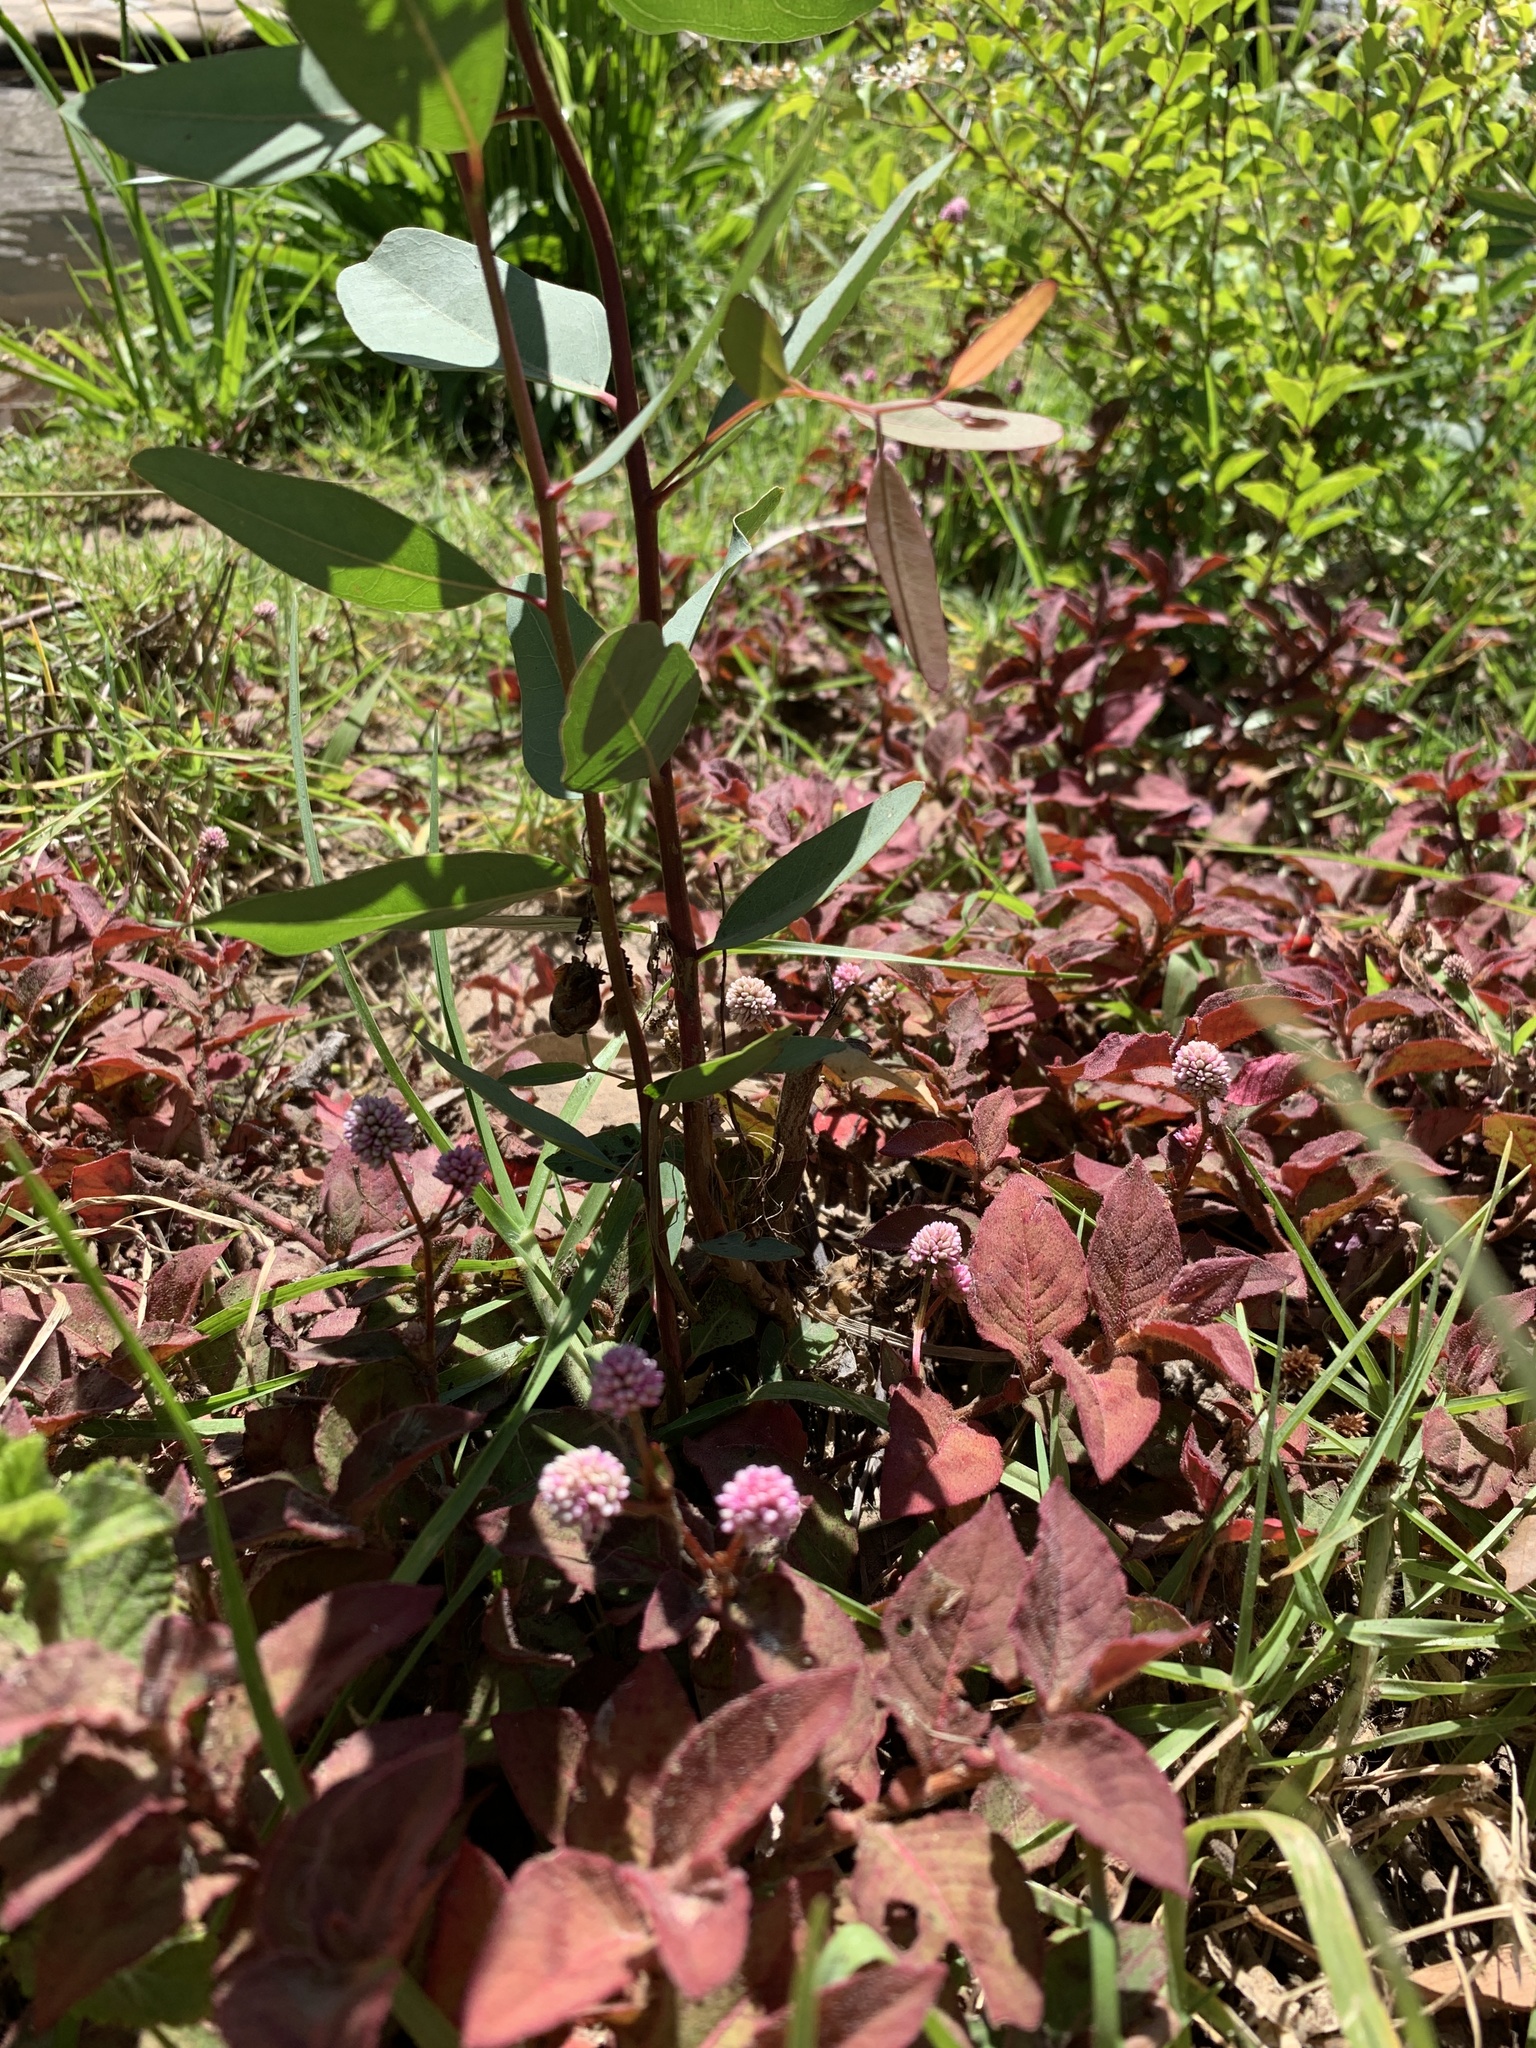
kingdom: Plantae
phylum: Tracheophyta
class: Magnoliopsida
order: Caryophyllales
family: Polygonaceae
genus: Persicaria
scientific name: Persicaria capitata
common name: Pinkhead smartweed
